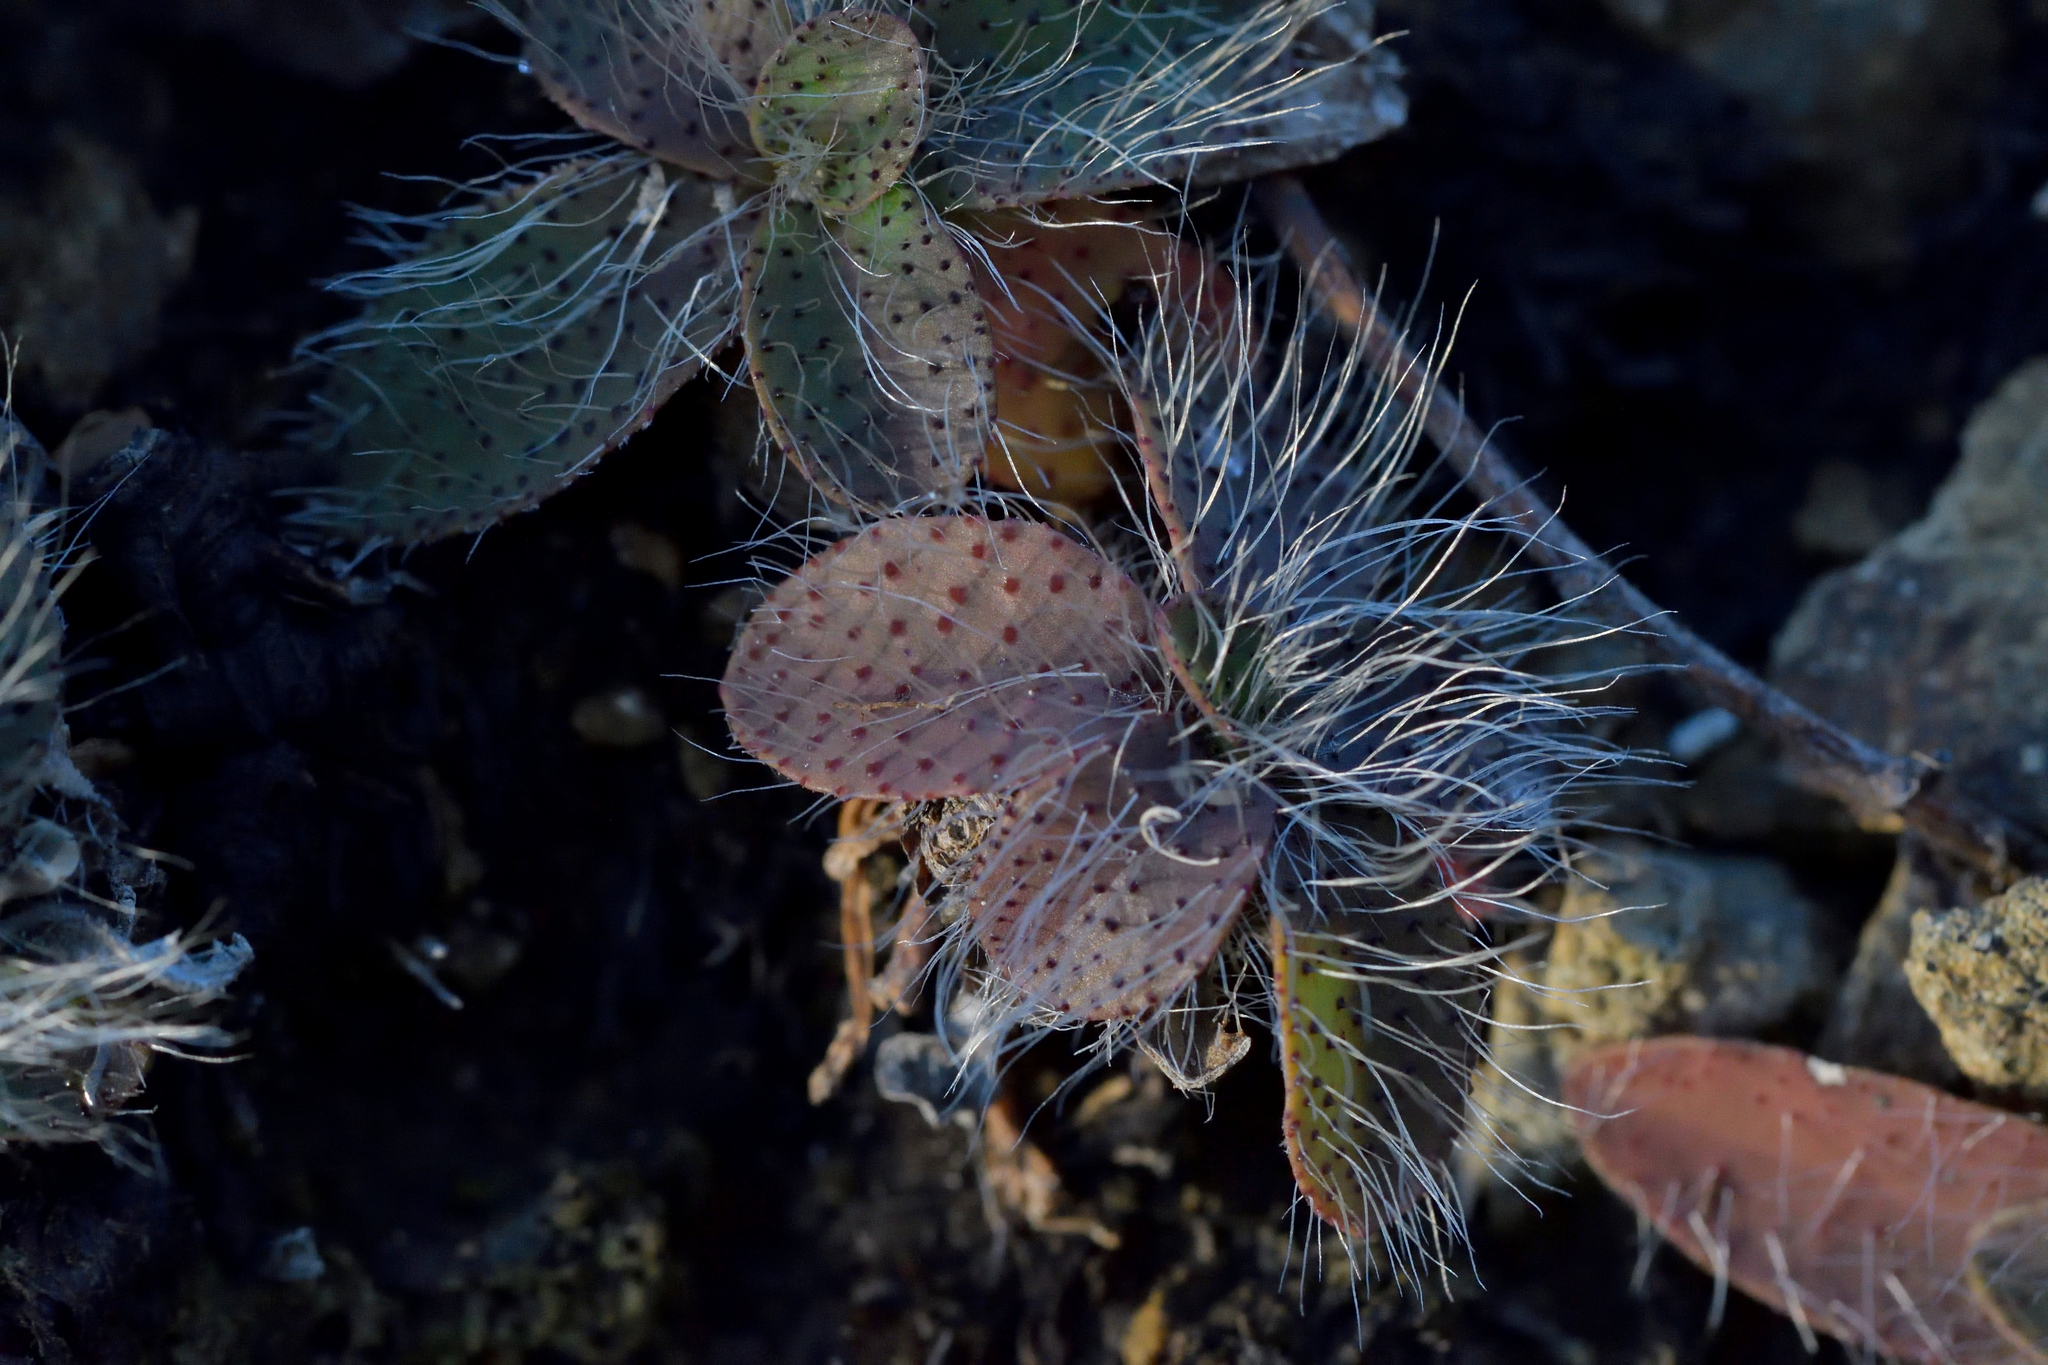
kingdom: Plantae
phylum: Tracheophyta
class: Magnoliopsida
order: Asterales
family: Asteraceae
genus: Pilosella
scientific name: Pilosella officinarum
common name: Mouse-ear hawkweed
